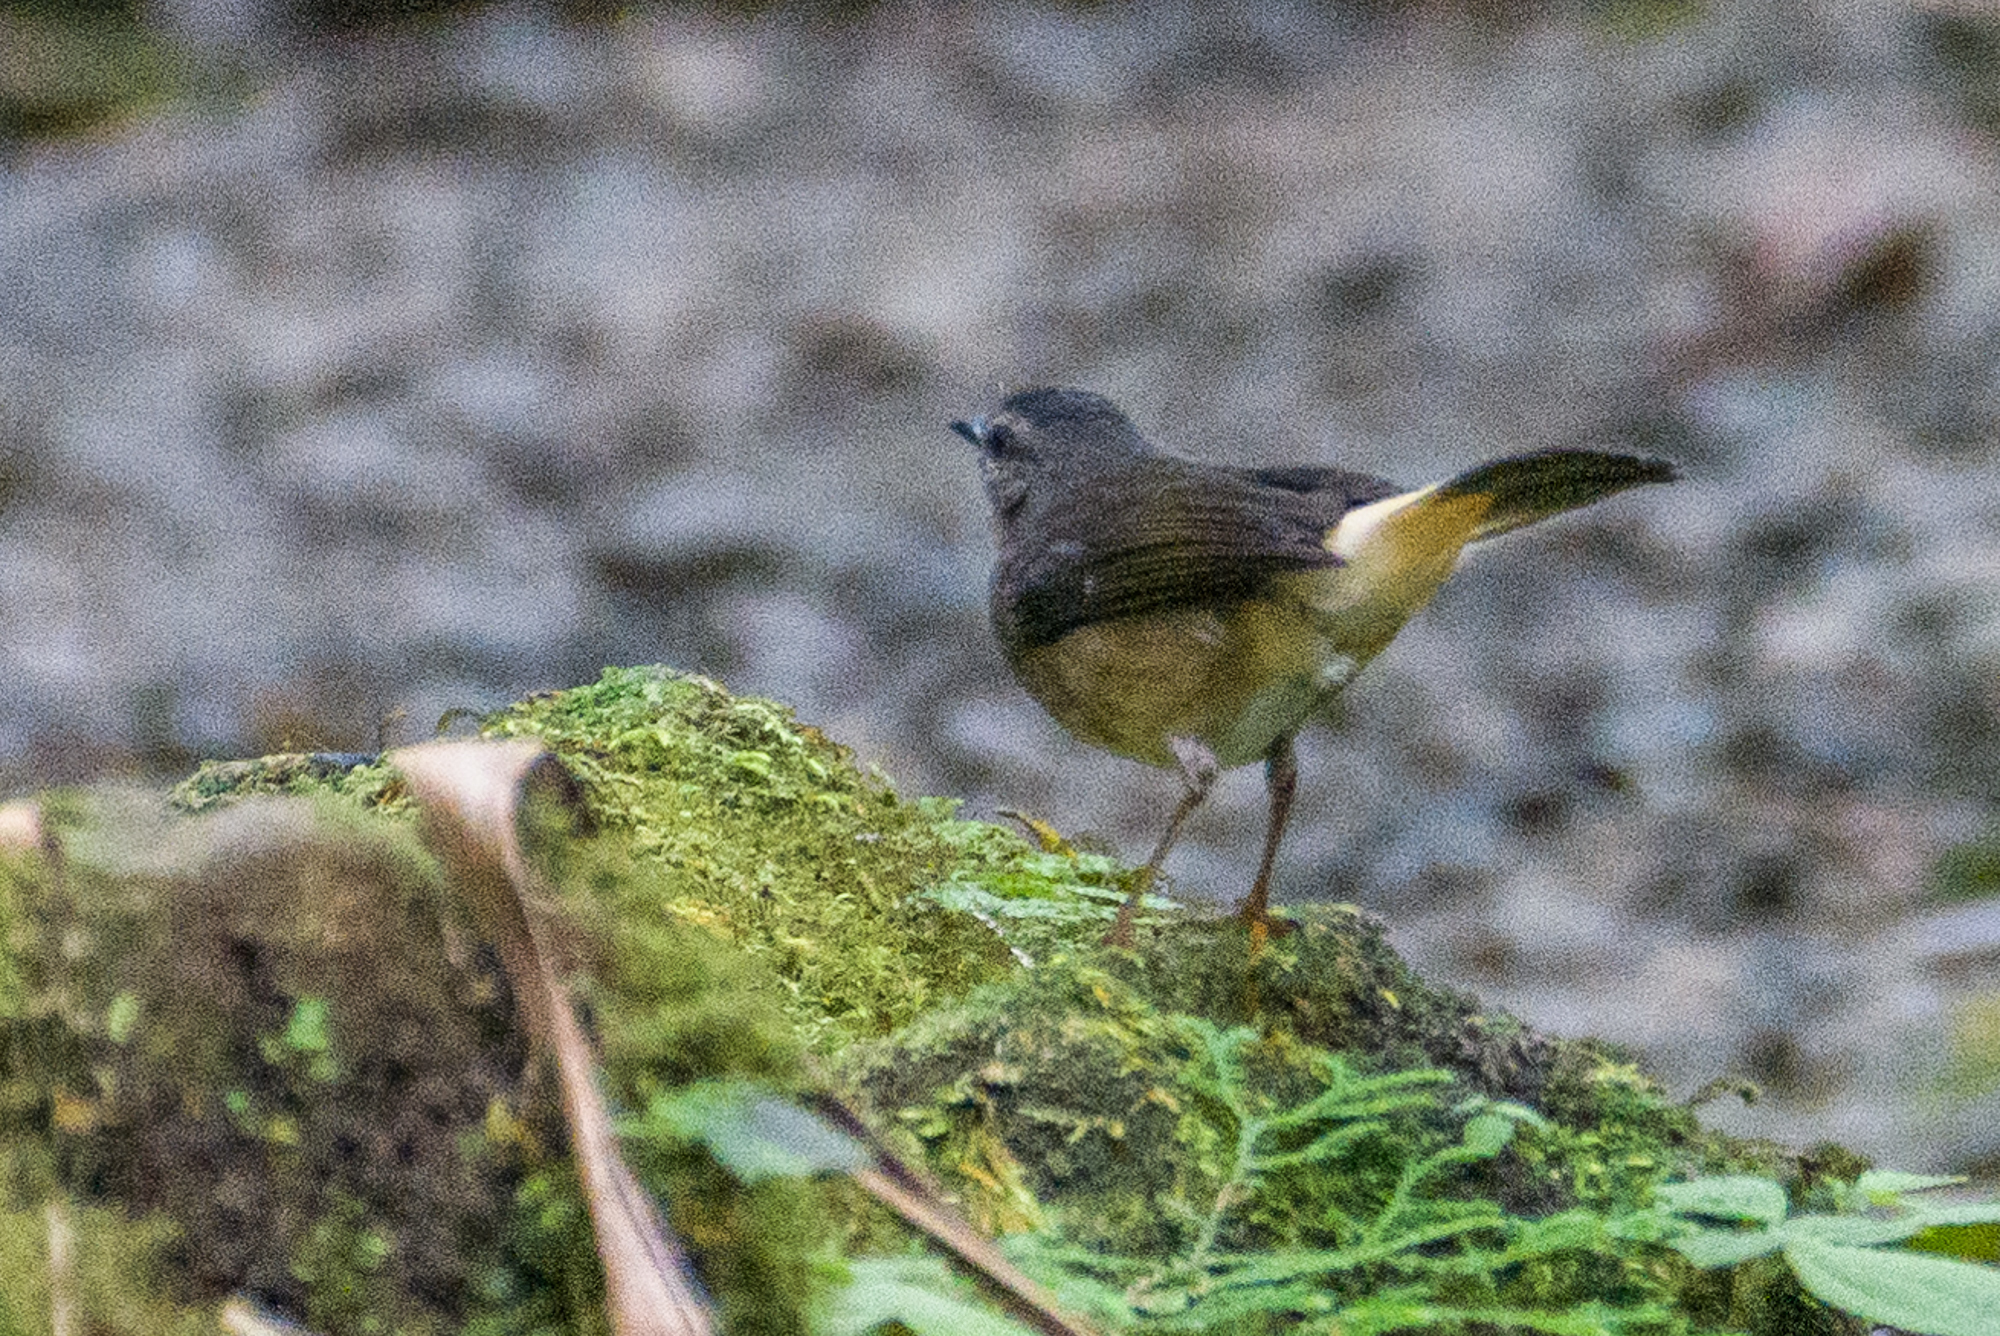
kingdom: Animalia
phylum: Chordata
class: Aves
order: Passeriformes
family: Parulidae
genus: Myiothlypis
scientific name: Myiothlypis fulvicauda
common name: Buff-rumped warbler
